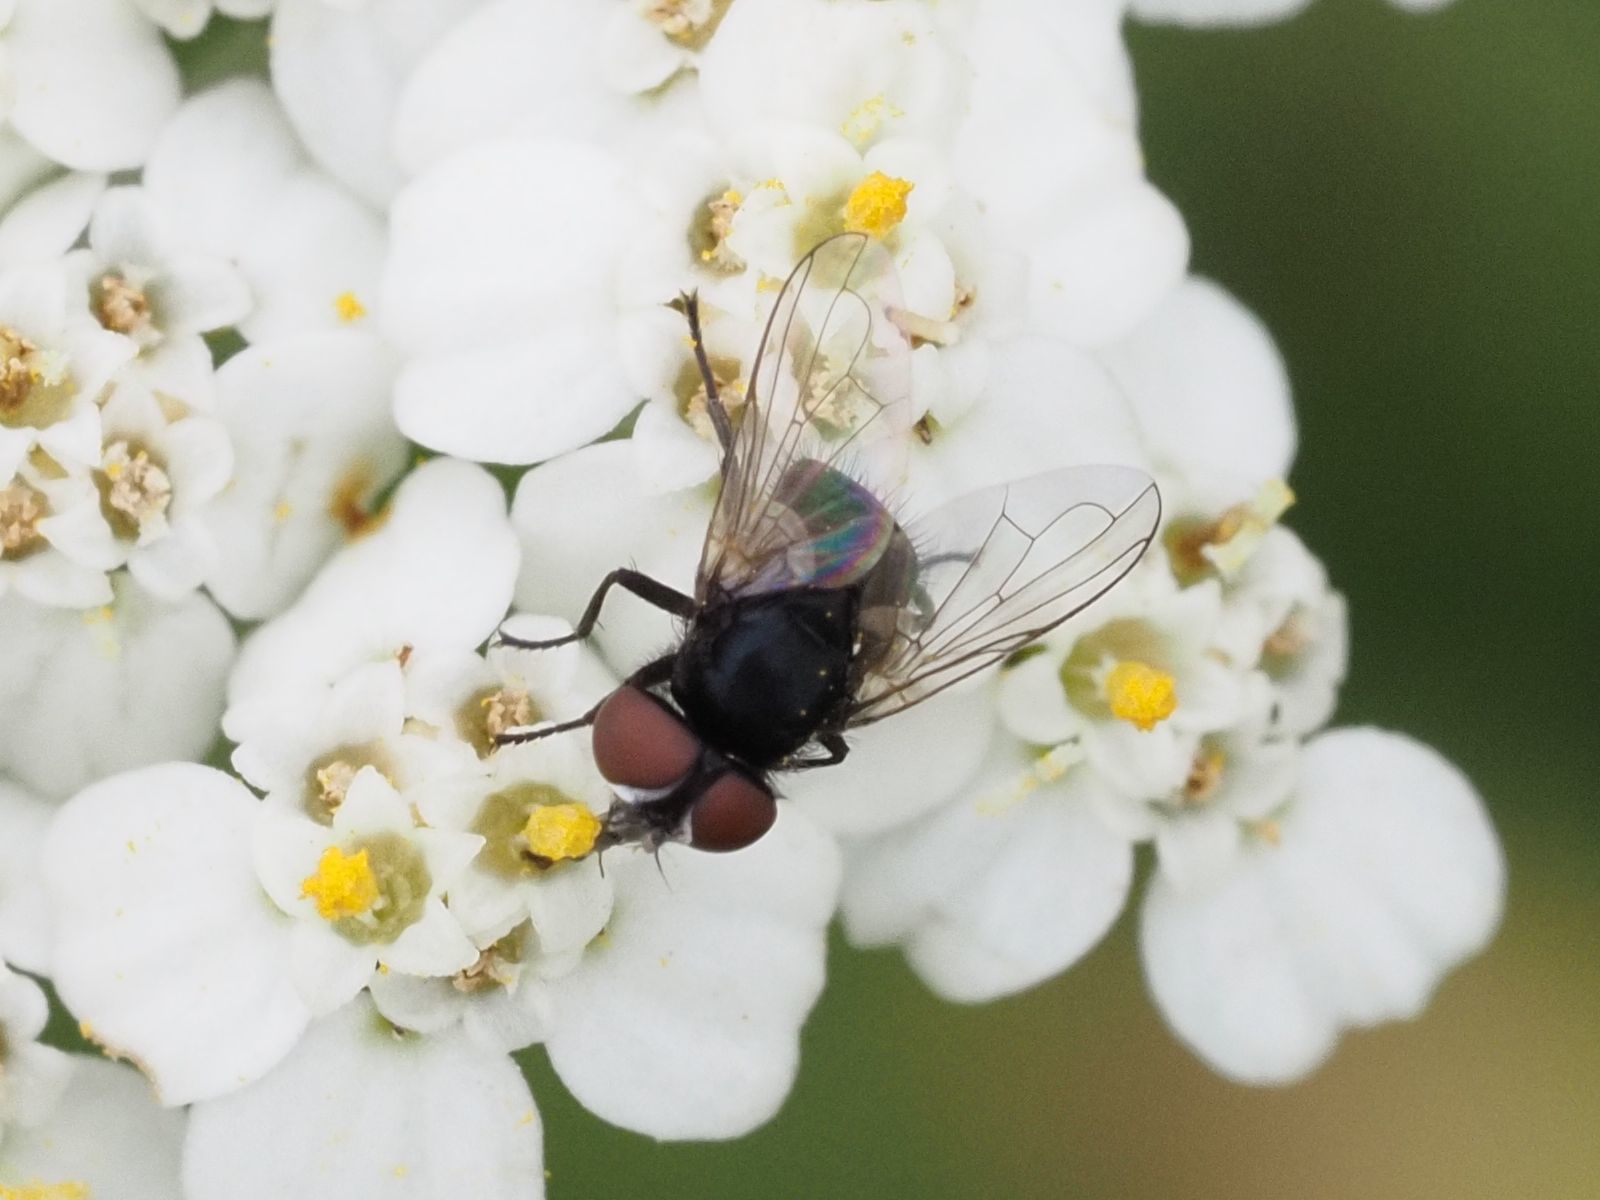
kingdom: Animalia
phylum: Arthropoda
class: Insecta
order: Diptera
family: Tachinidae
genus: Phasia
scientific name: Phasia pusilla
